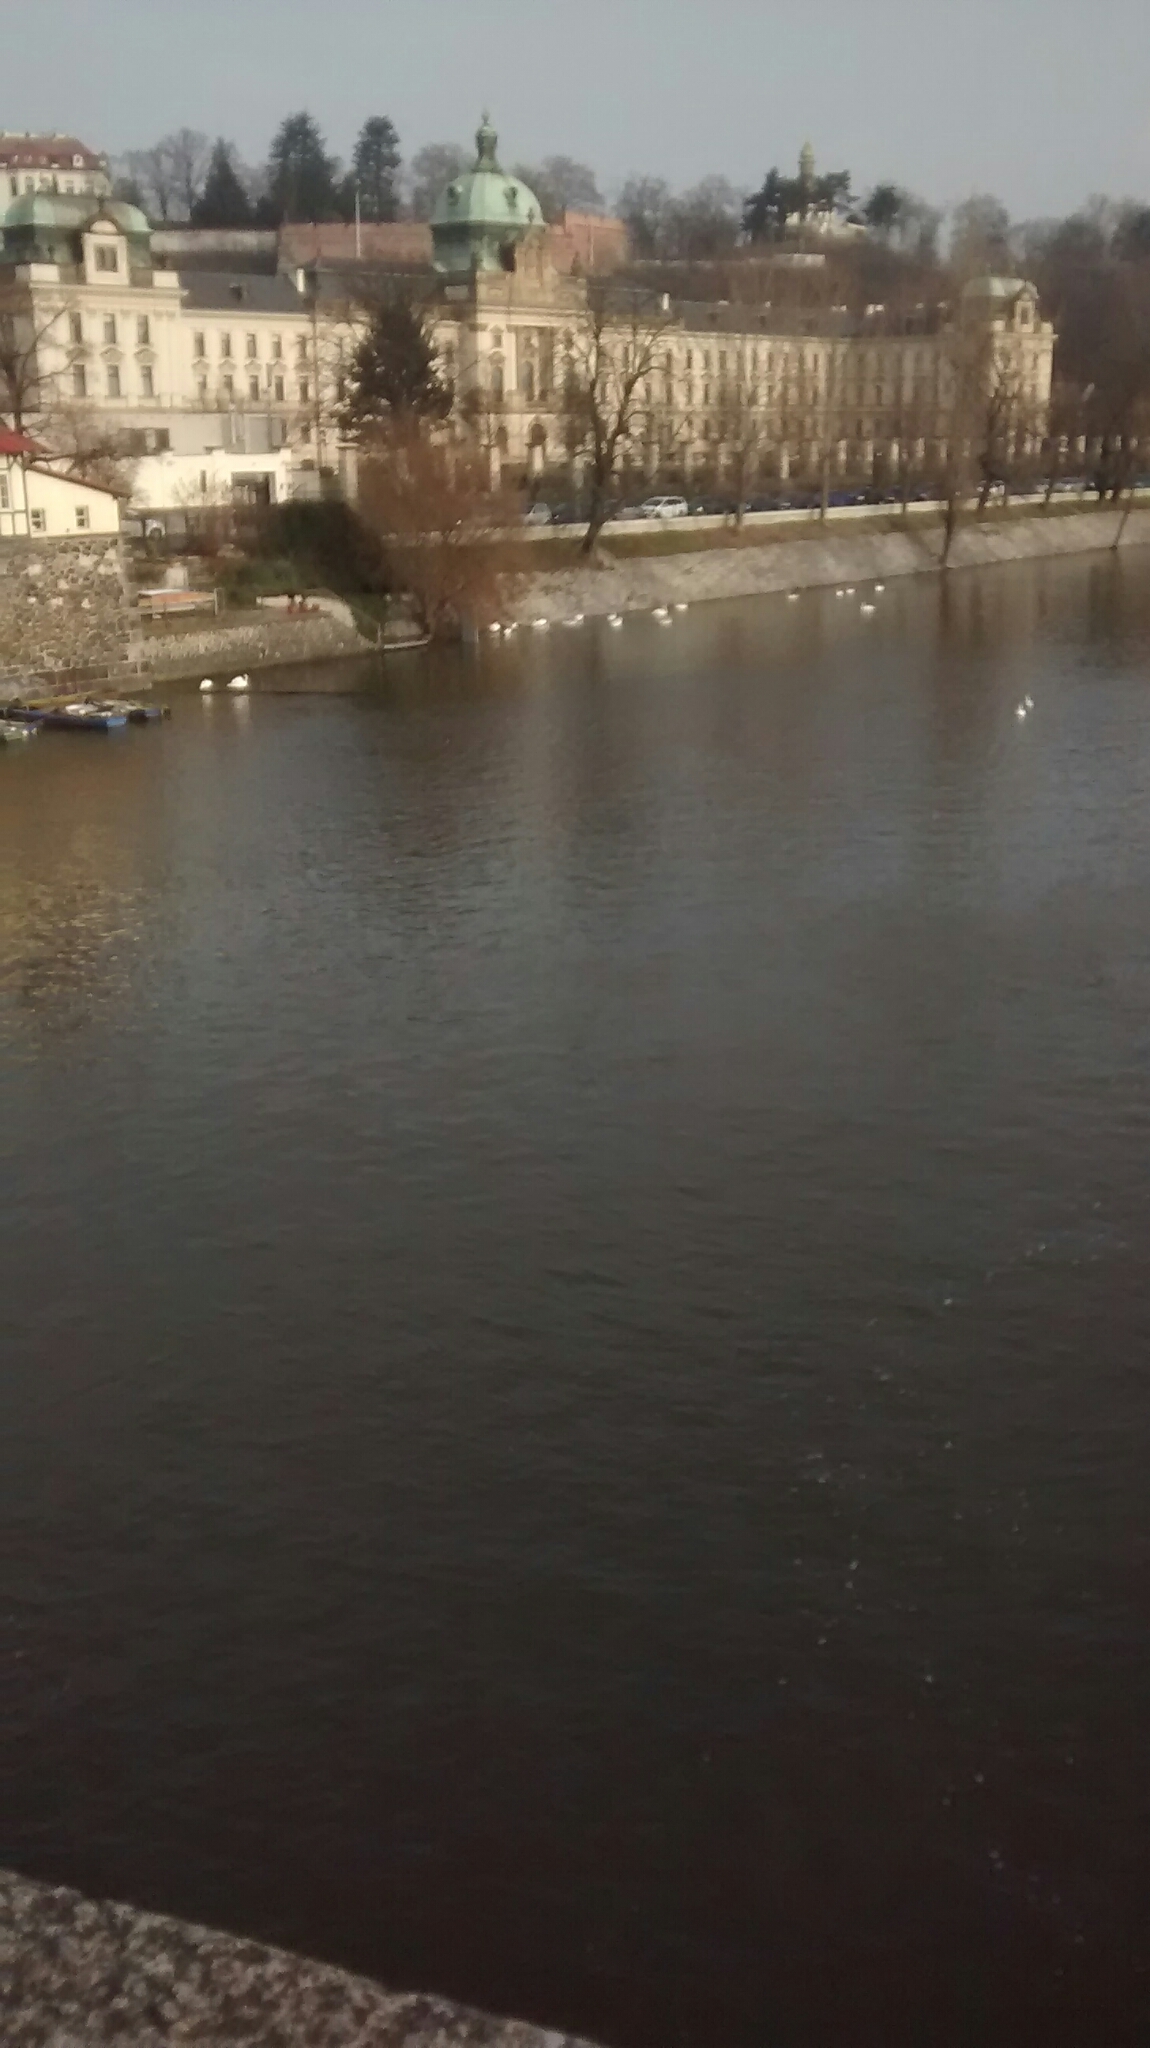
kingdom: Animalia
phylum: Chordata
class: Aves
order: Anseriformes
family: Anatidae
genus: Cygnus
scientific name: Cygnus olor
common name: Mute swan
